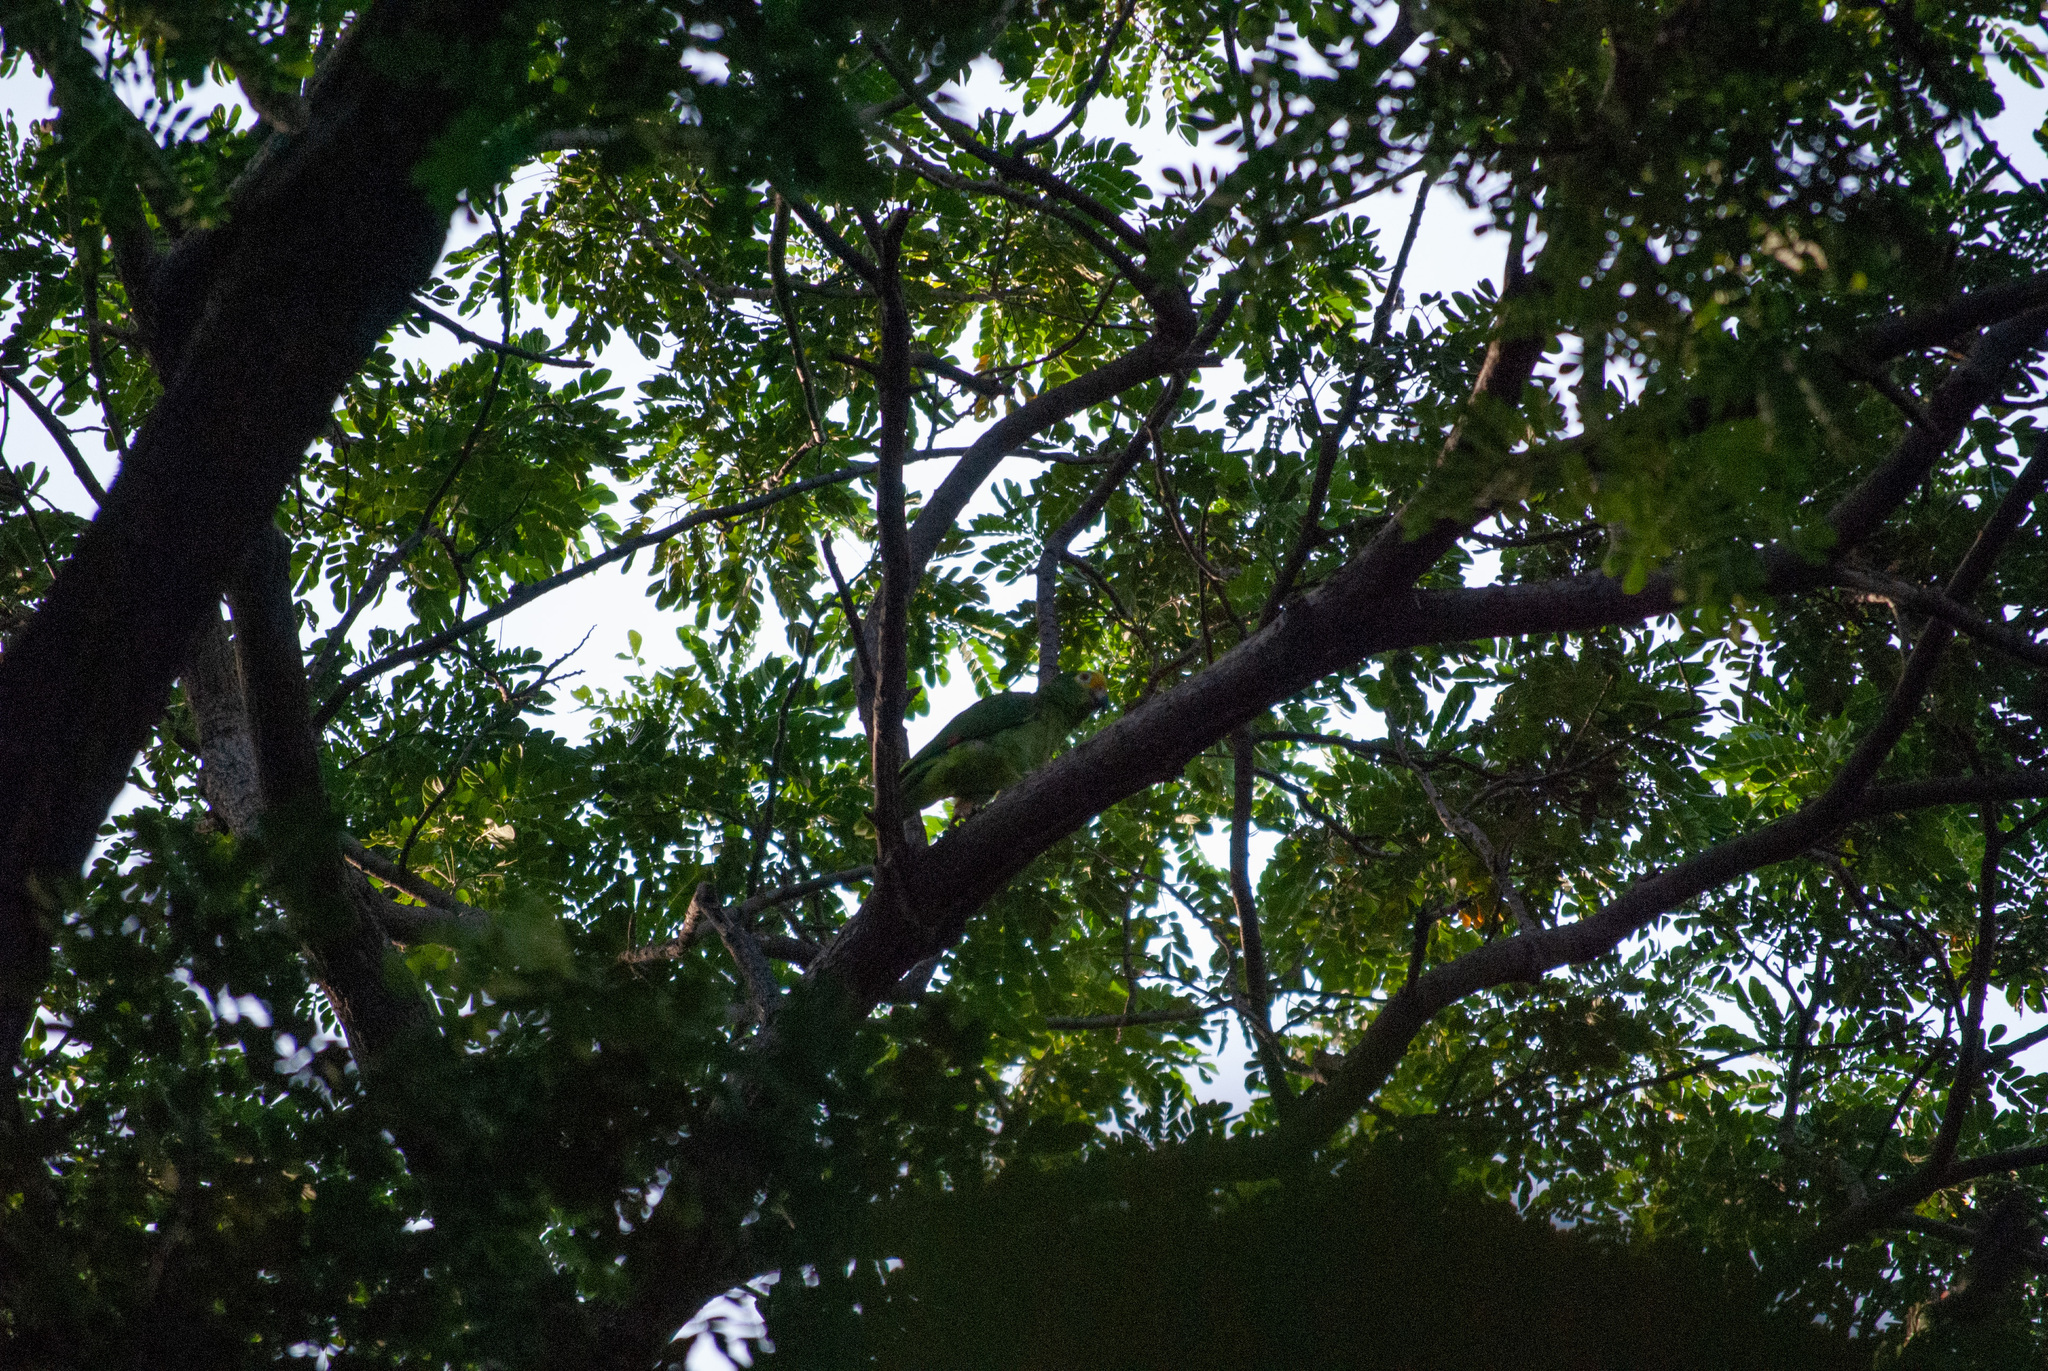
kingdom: Animalia
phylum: Chordata
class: Aves
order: Psittaciformes
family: Psittacidae
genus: Amazona
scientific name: Amazona ochrocephala
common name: Yellow-crowned amazon
